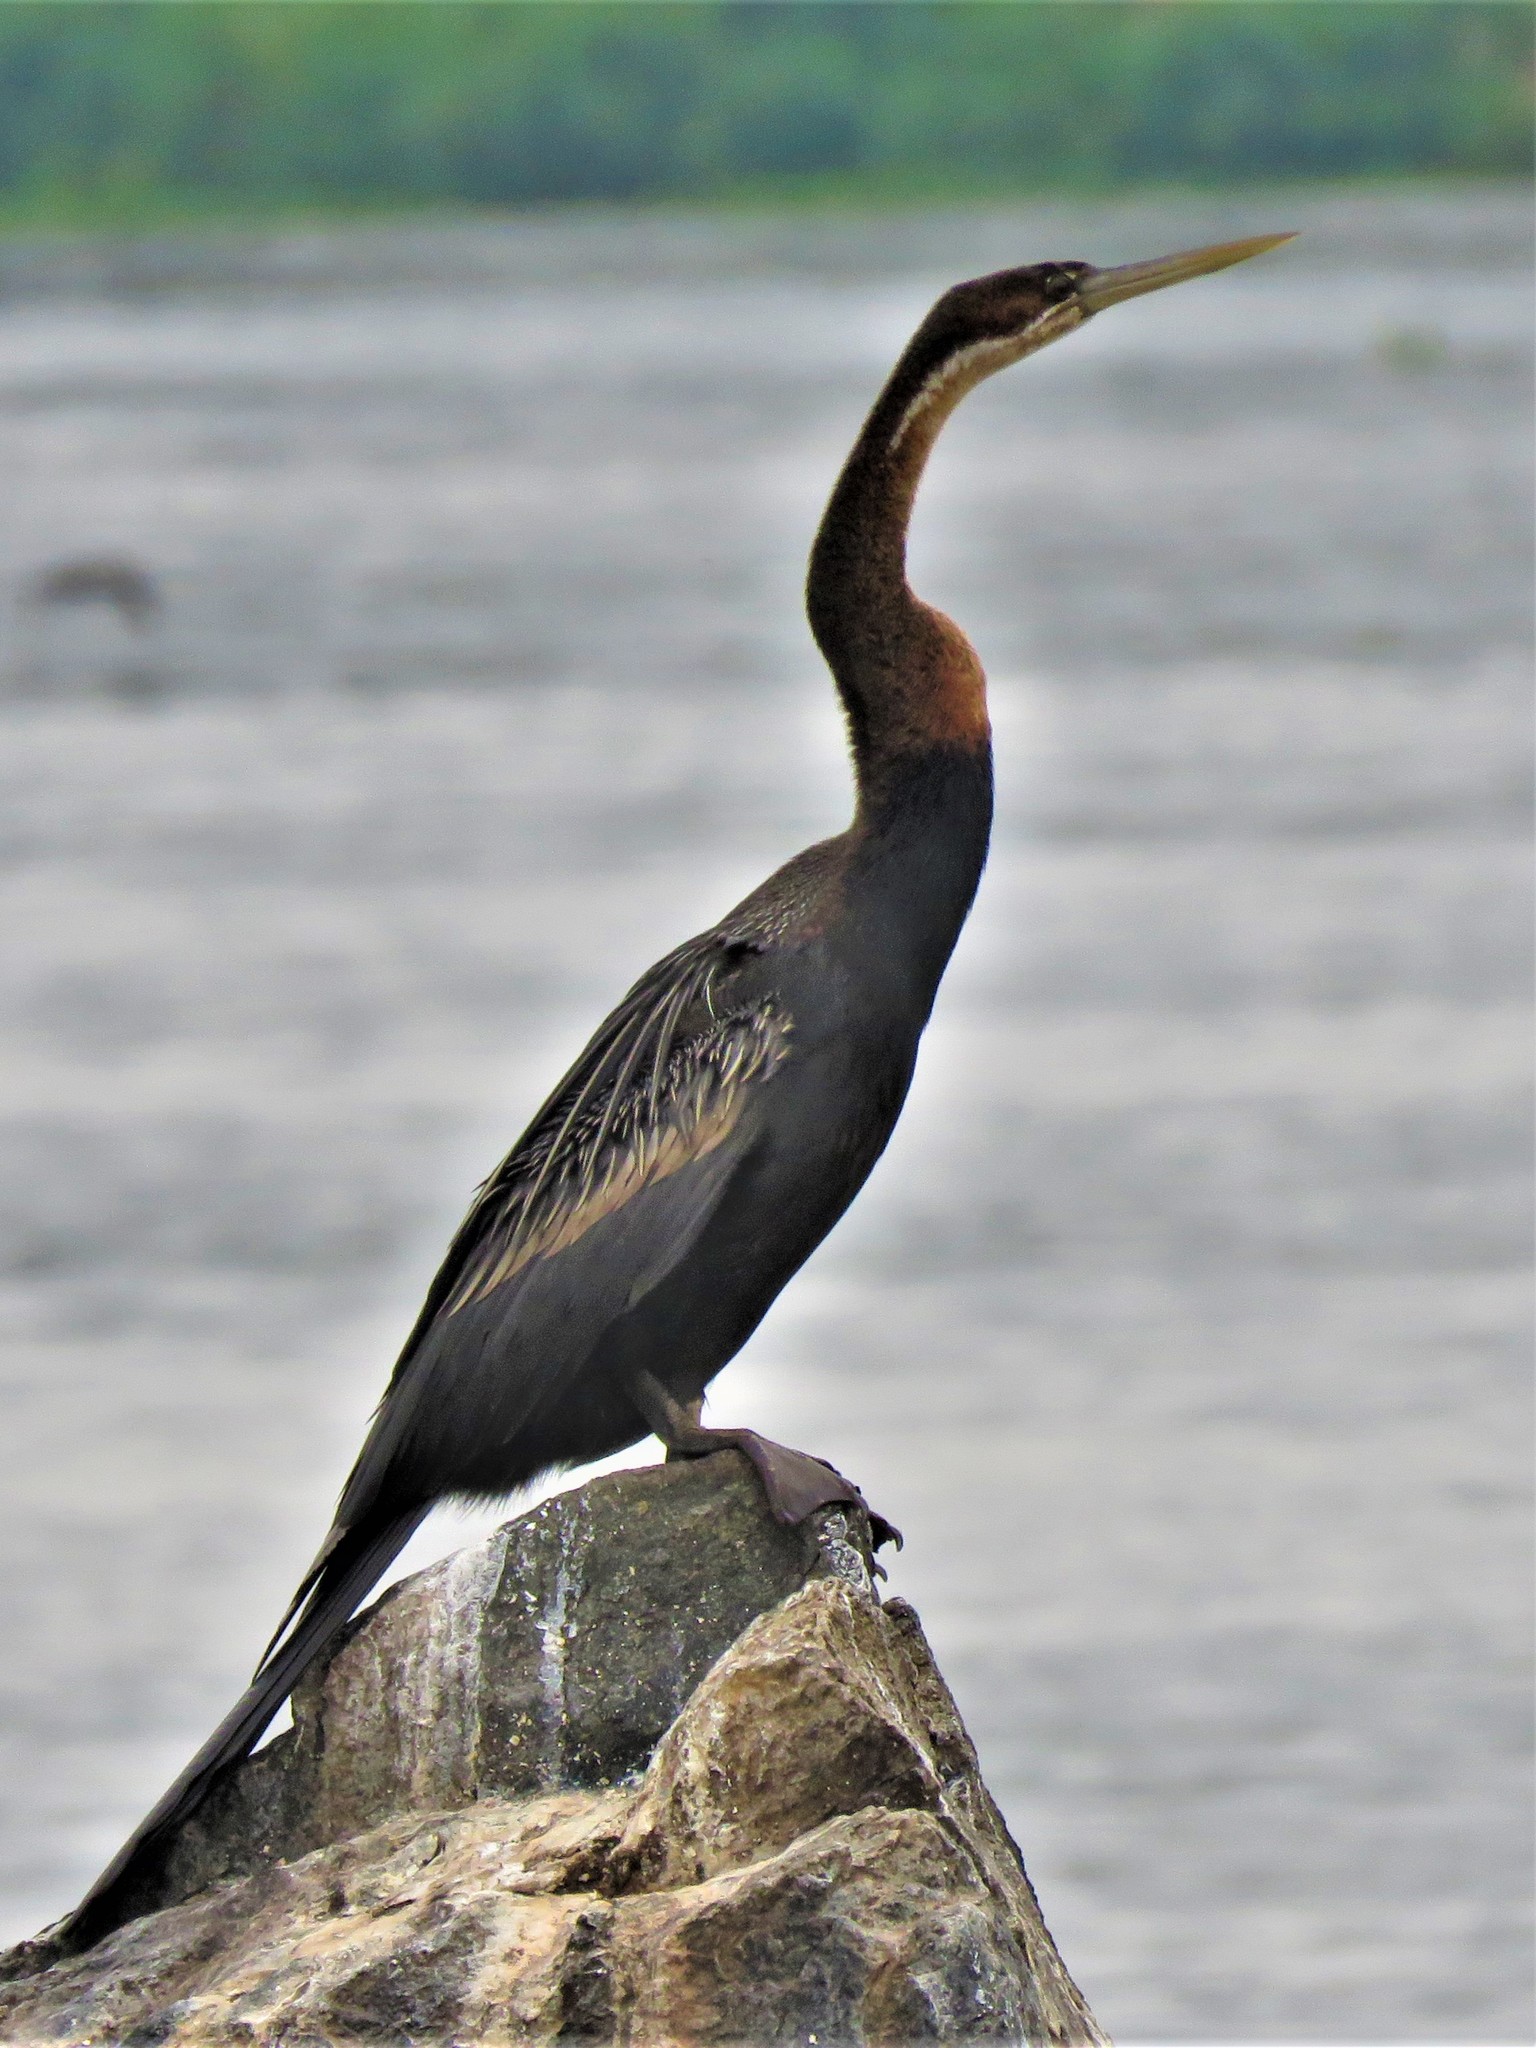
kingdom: Animalia
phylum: Chordata
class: Aves
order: Suliformes
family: Anhingidae
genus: Anhinga
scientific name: Anhinga rufa
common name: African darter
